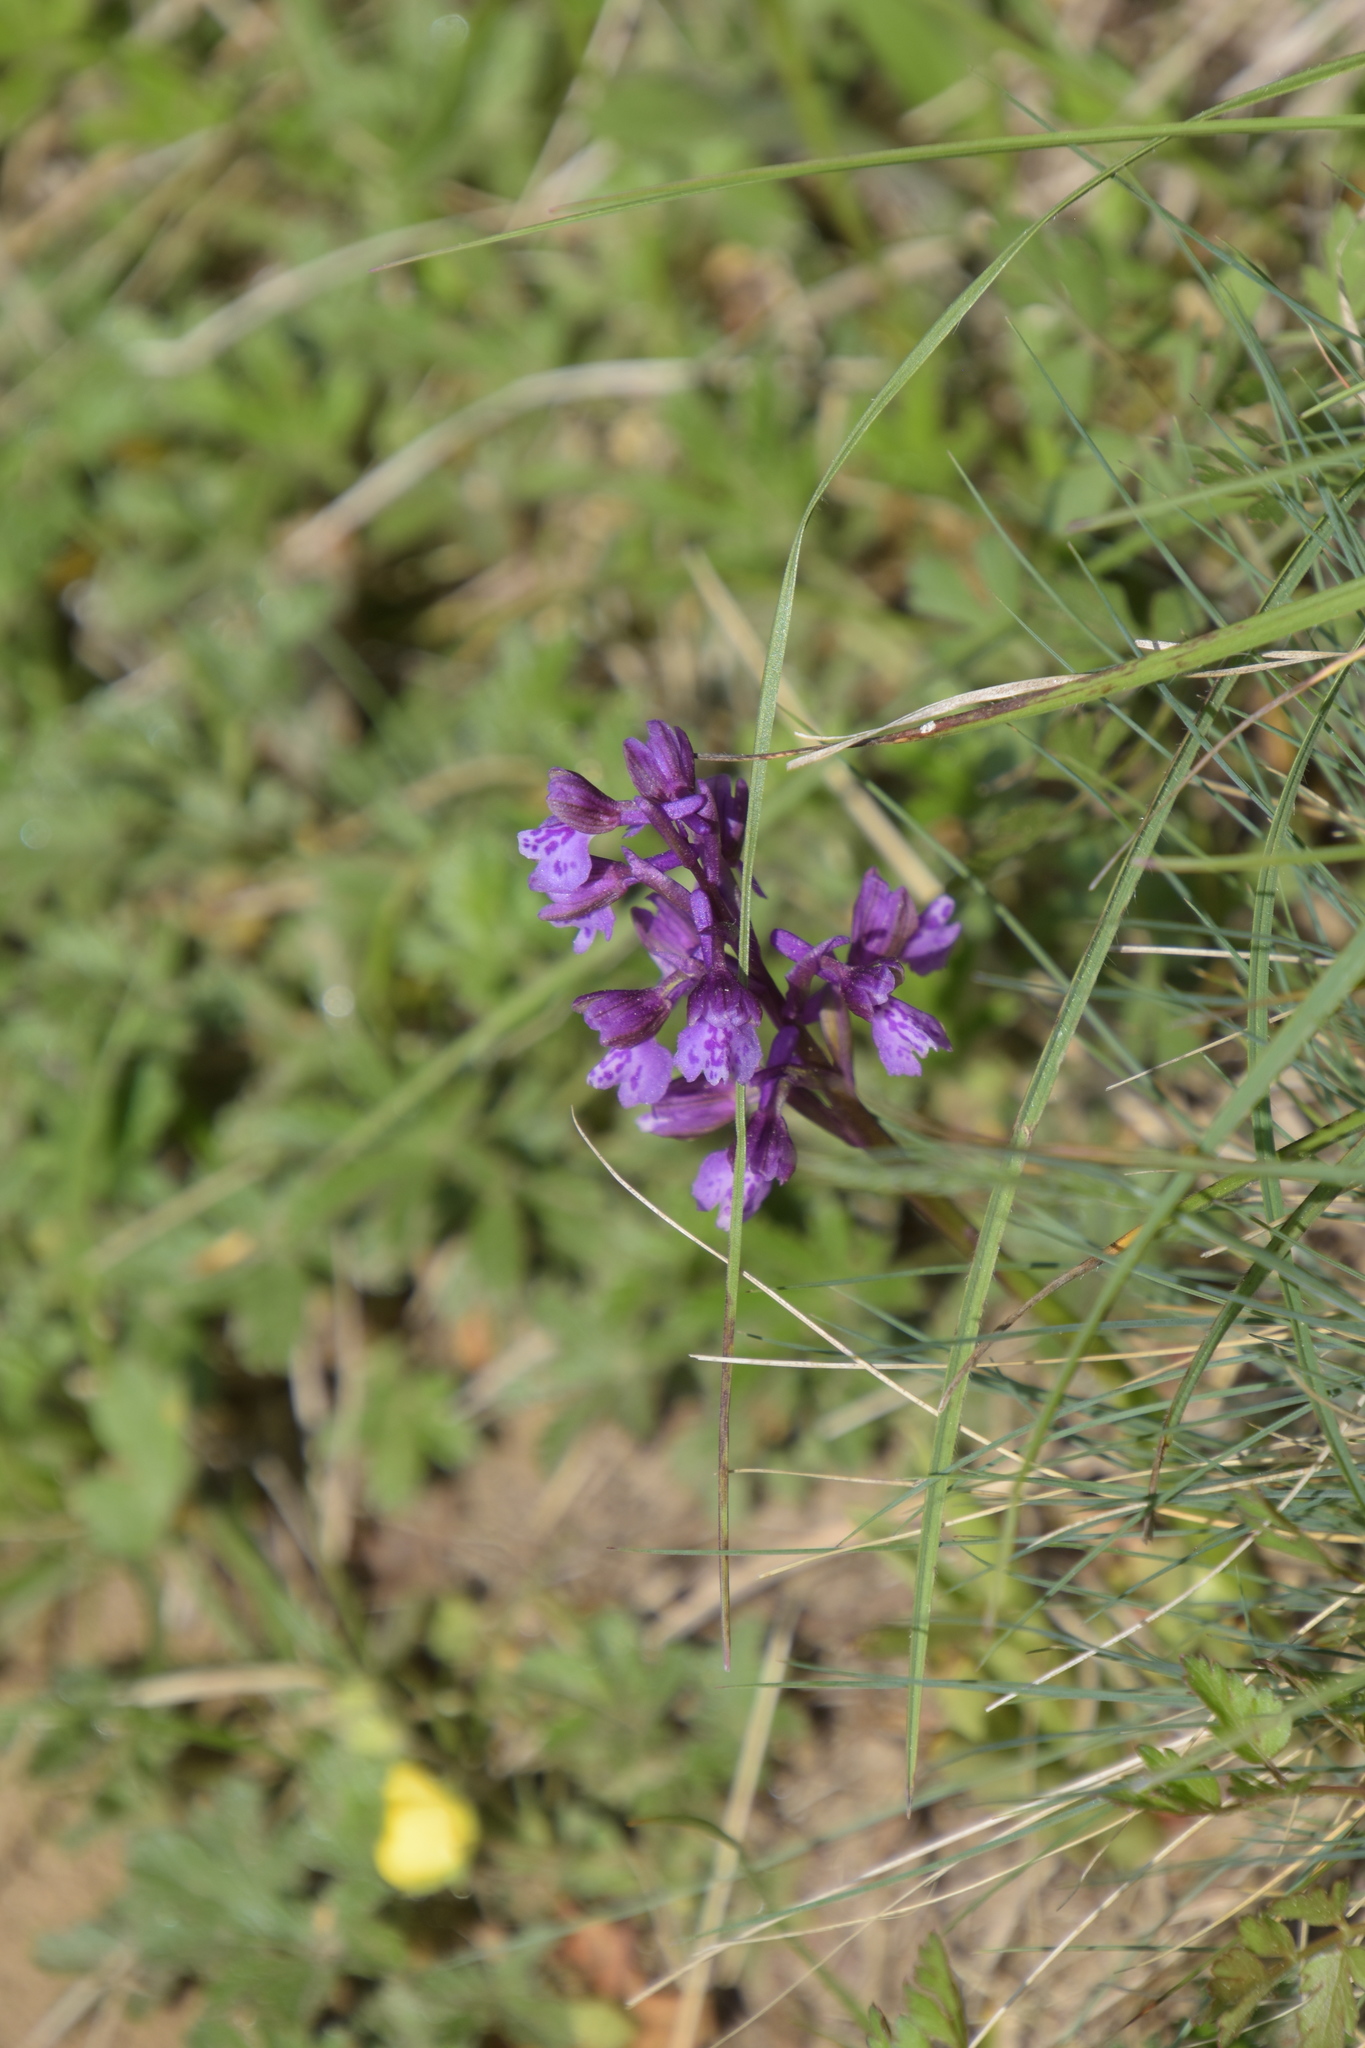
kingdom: Plantae
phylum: Tracheophyta
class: Liliopsida
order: Asparagales
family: Orchidaceae
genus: Anacamptis
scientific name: Anacamptis morio
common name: Green-winged orchid
